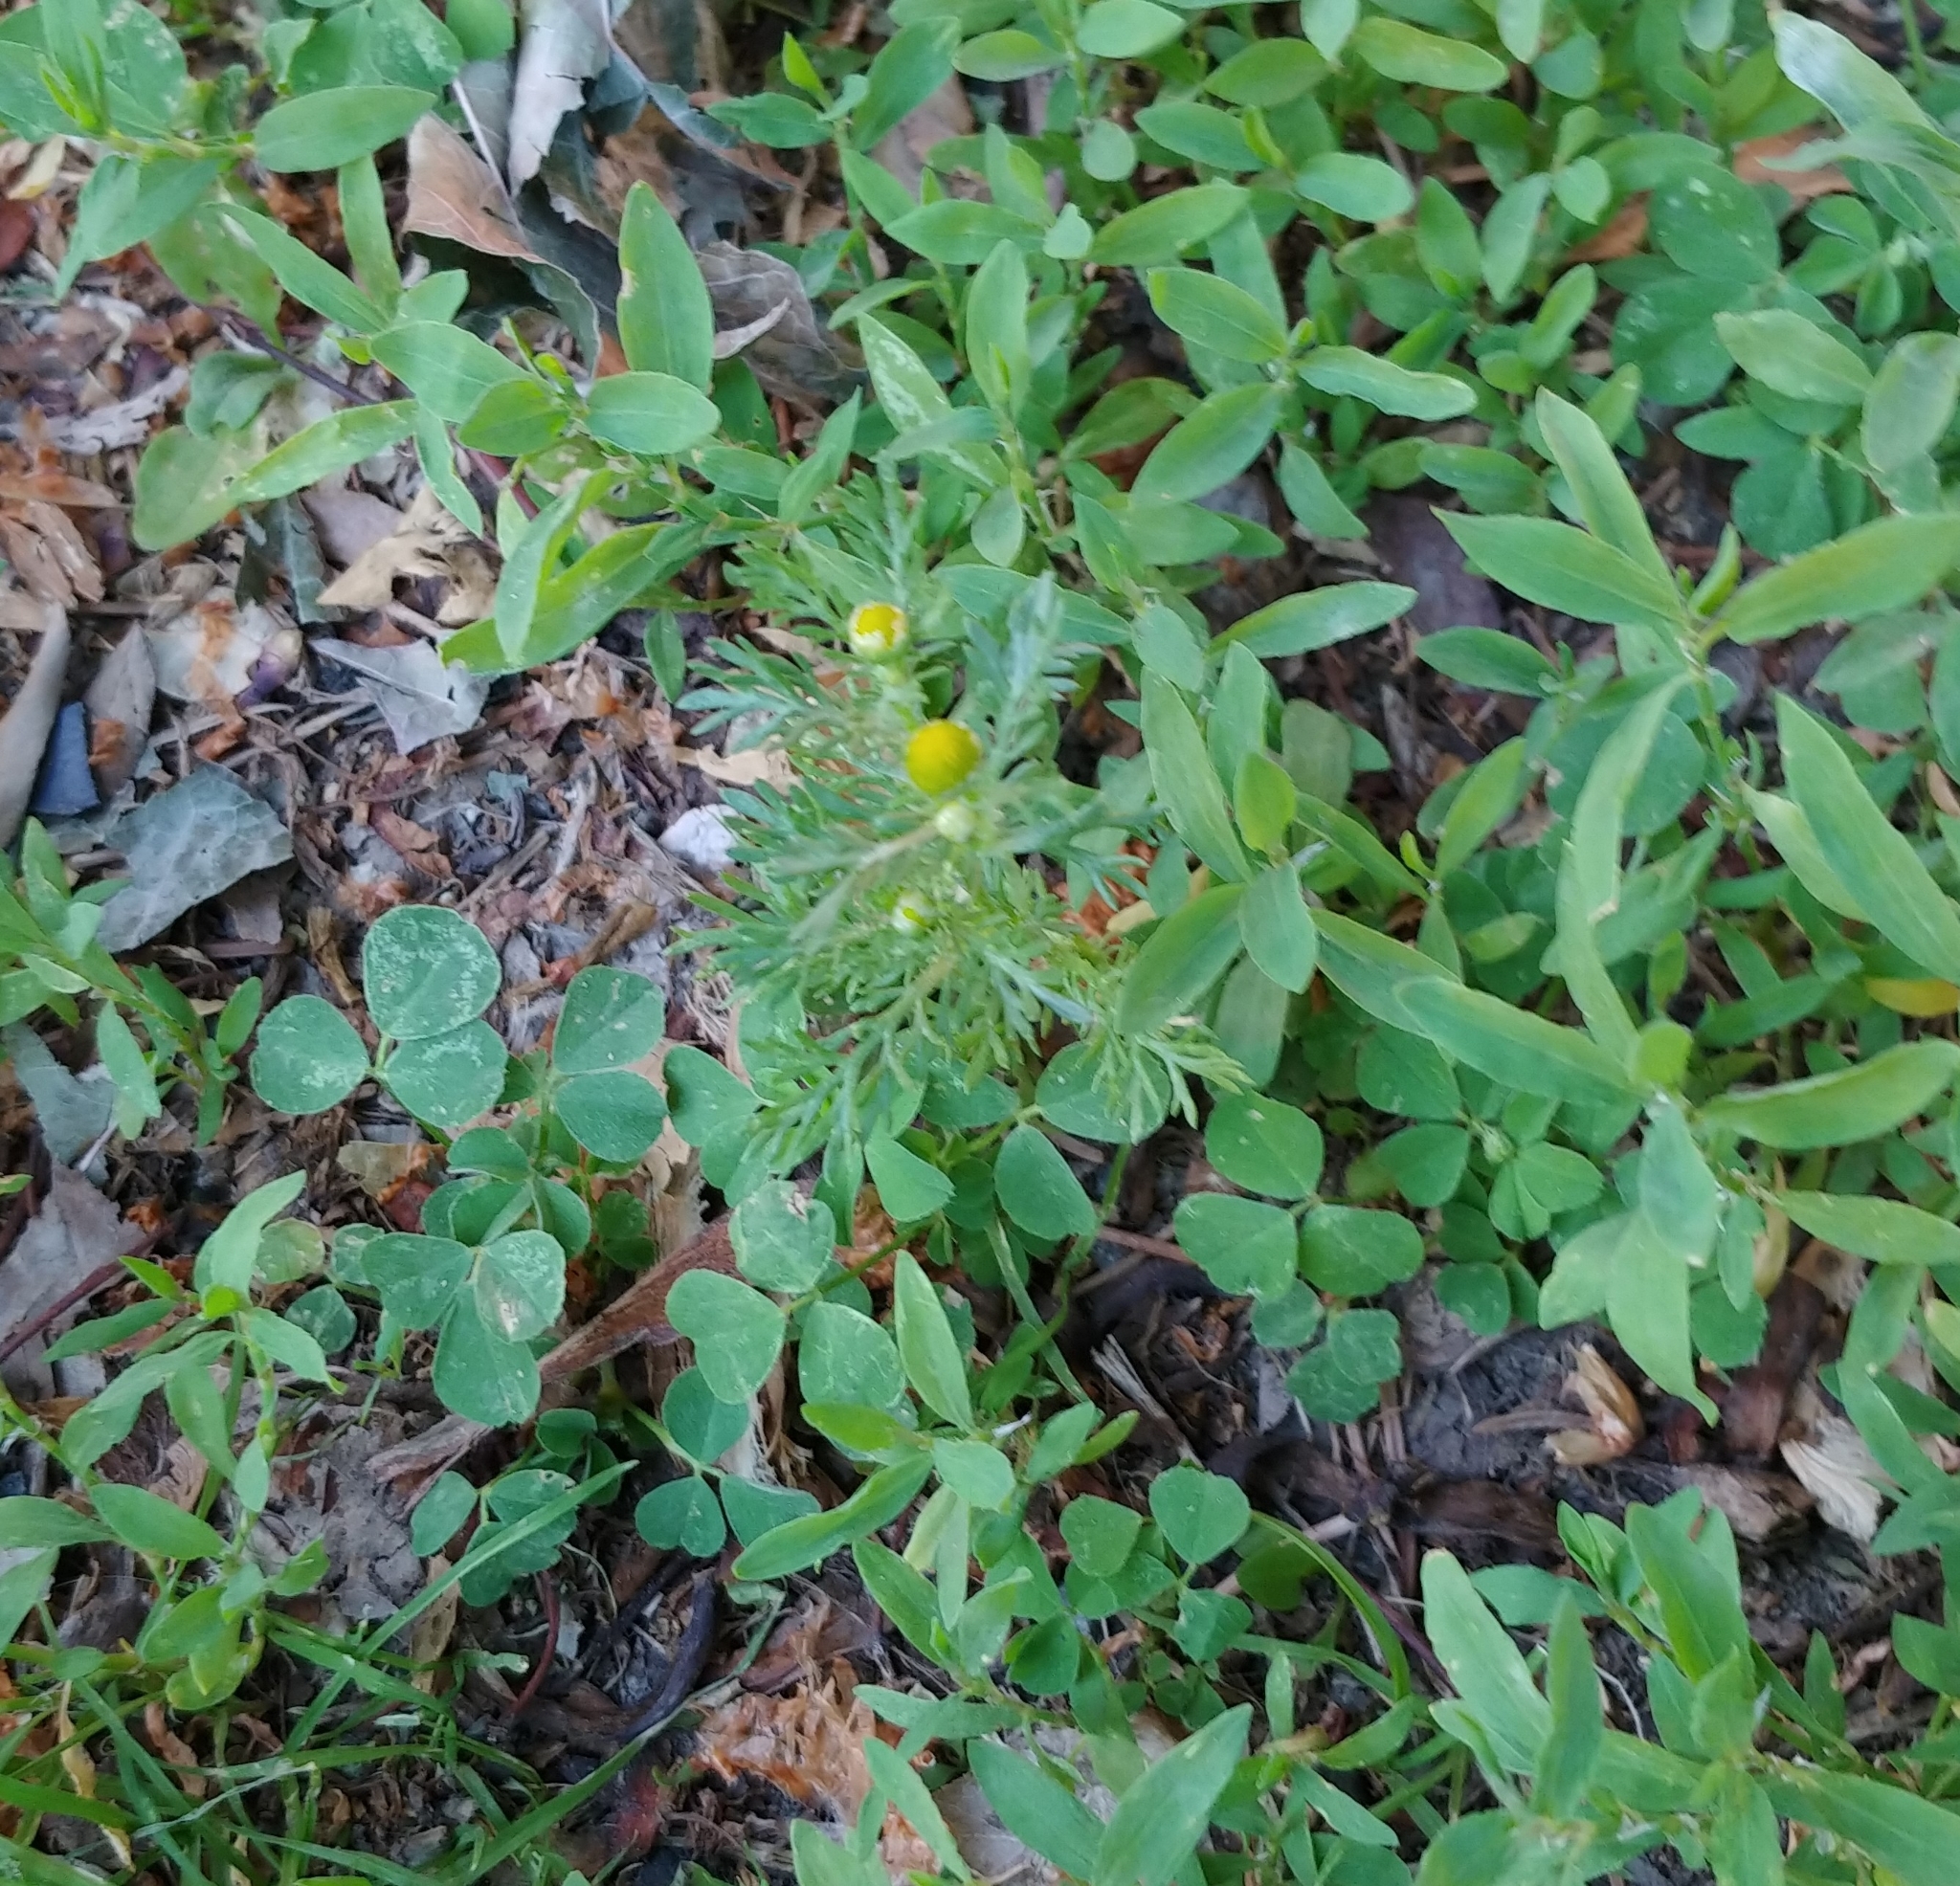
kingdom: Plantae
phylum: Tracheophyta
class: Magnoliopsida
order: Asterales
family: Asteraceae
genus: Matricaria
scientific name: Matricaria discoidea
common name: Disc mayweed
